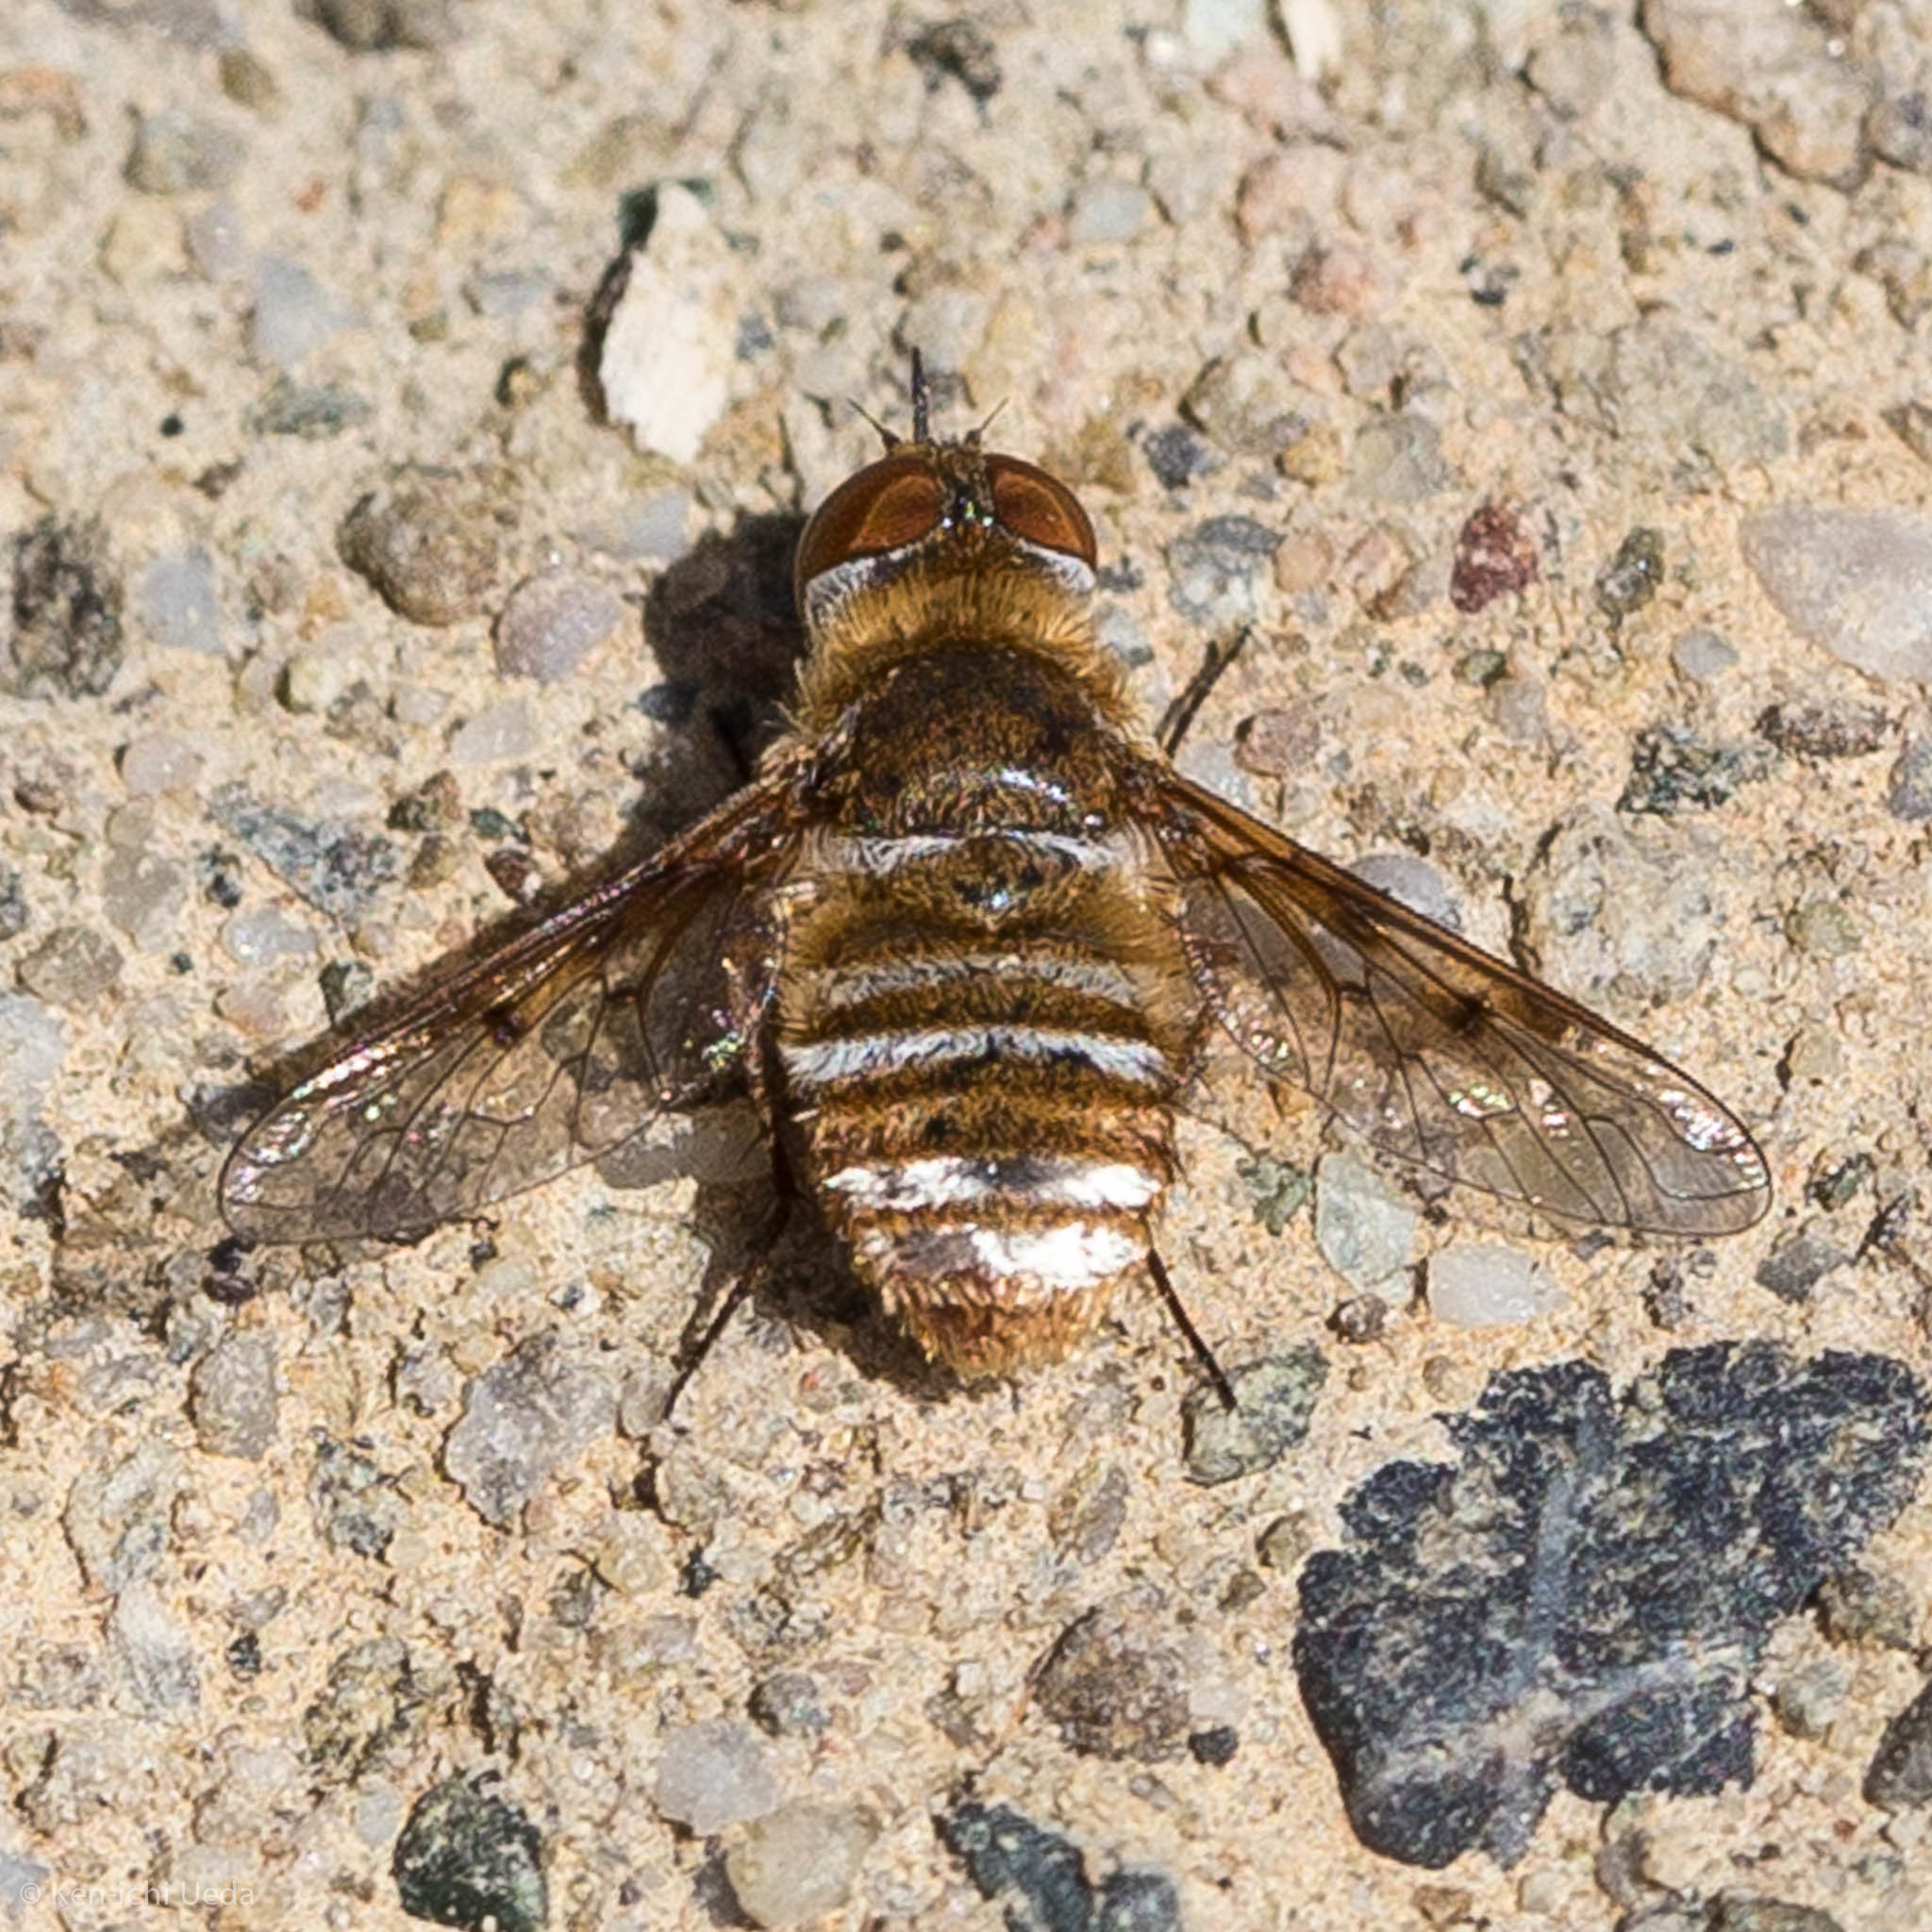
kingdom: Animalia
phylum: Arthropoda
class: Insecta
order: Diptera
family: Bombyliidae
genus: Lepidanthrax
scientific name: Lepidanthrax arnaudi
